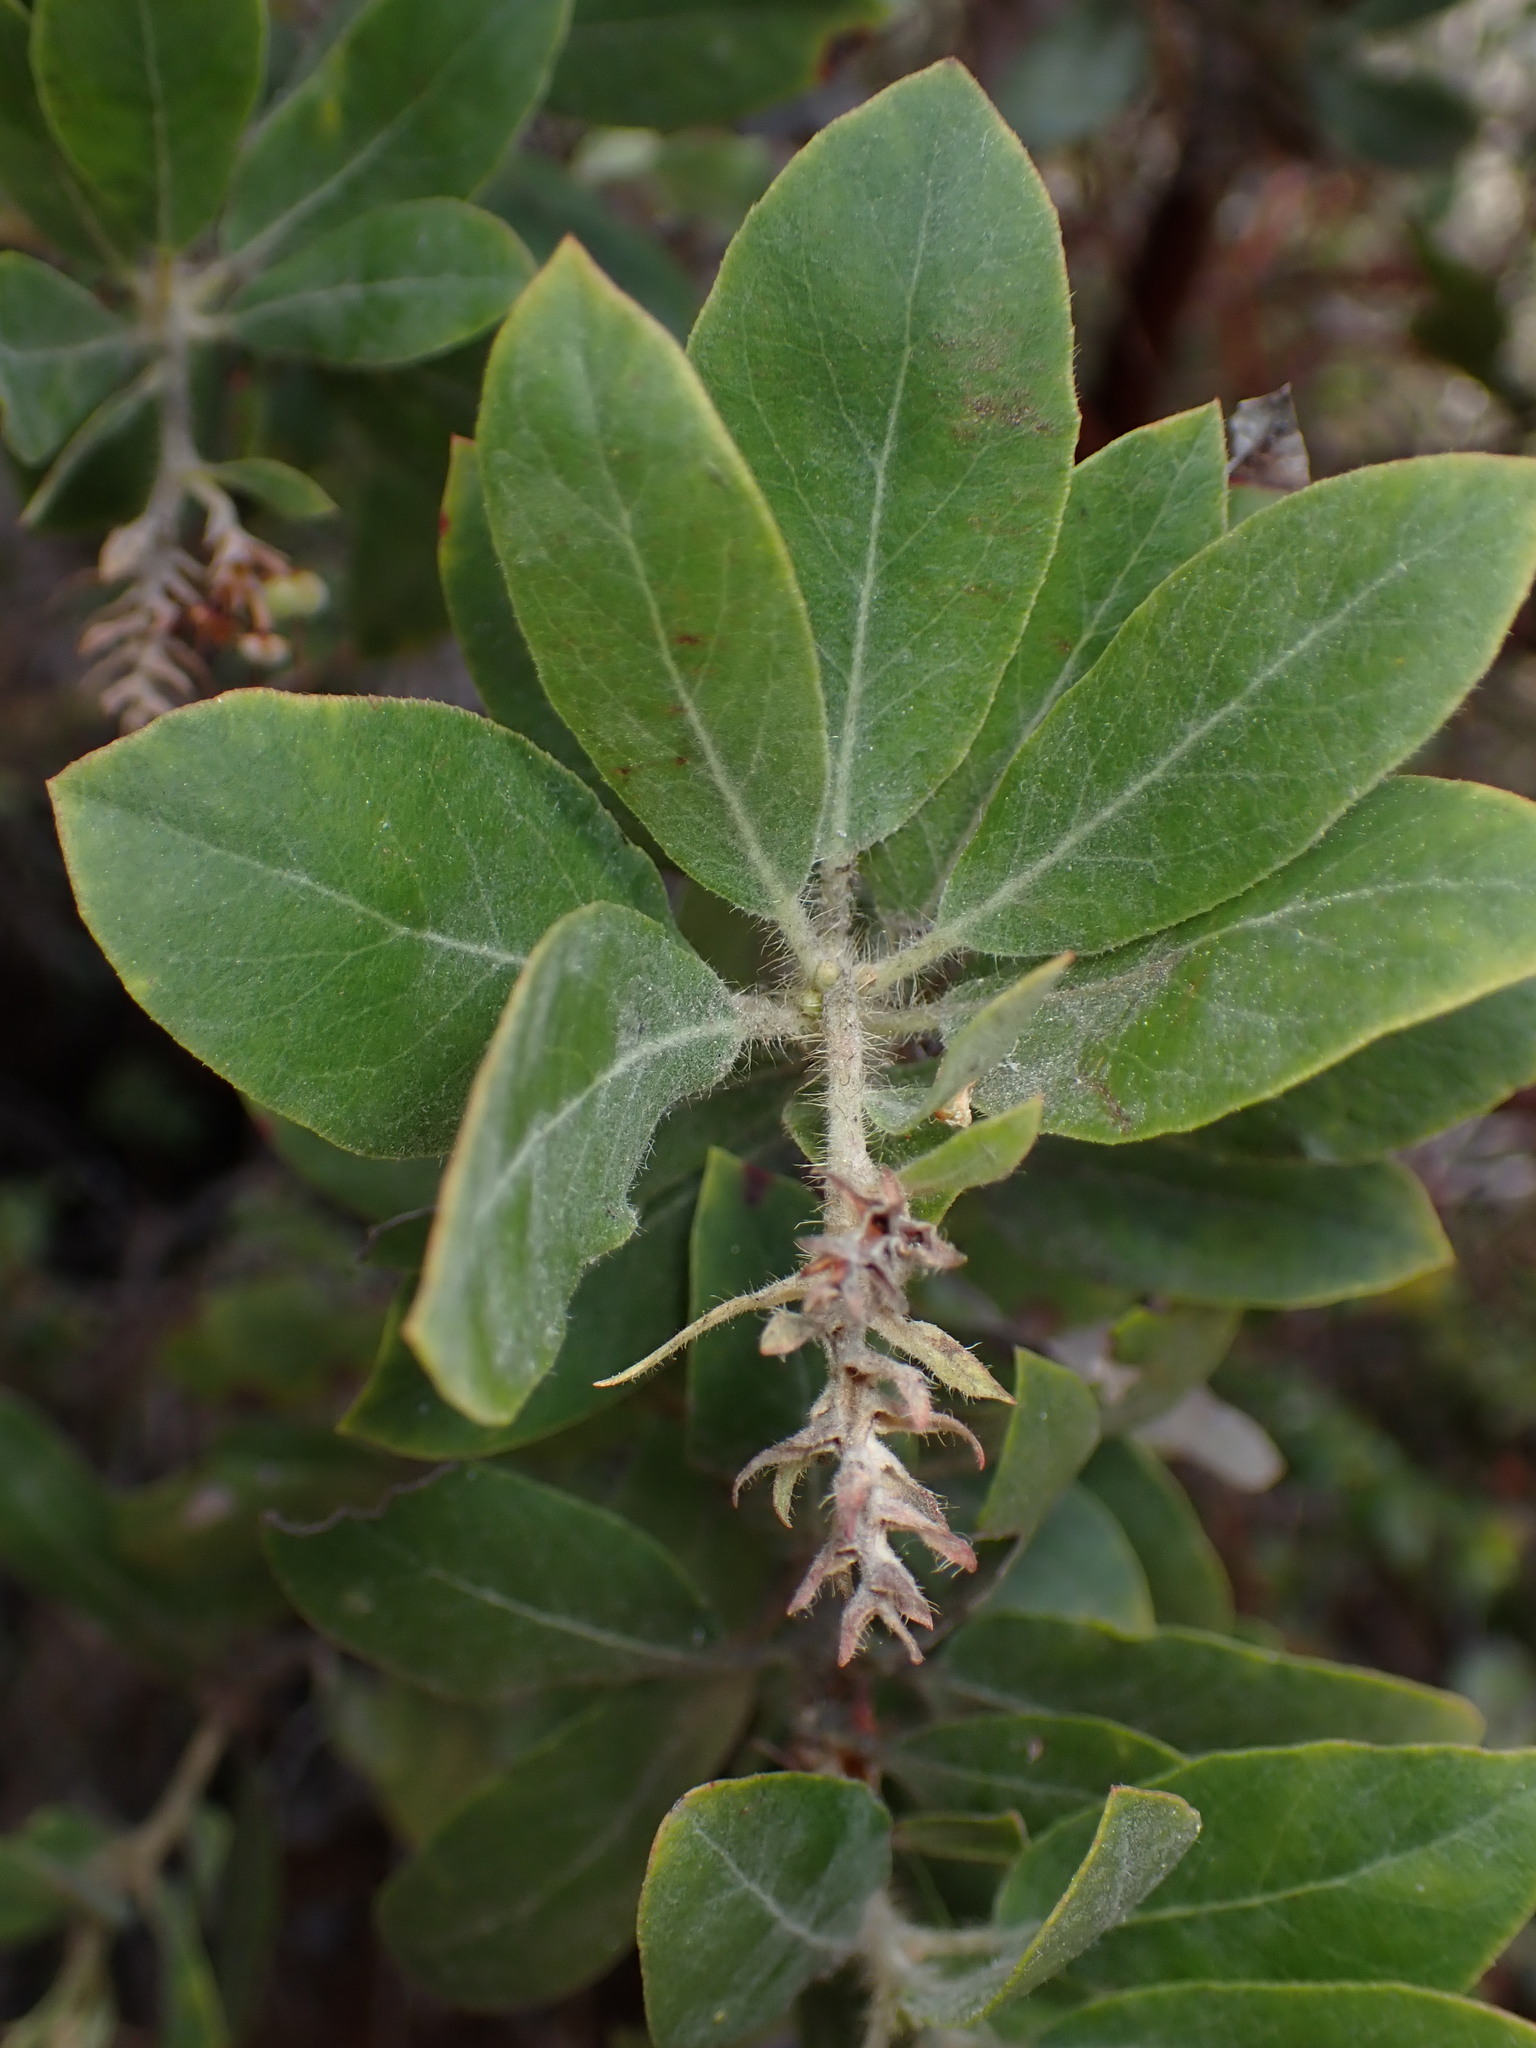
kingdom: Plantae
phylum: Tracheophyta
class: Magnoliopsida
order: Ericales
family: Ericaceae
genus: Arctostaphylos
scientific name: Arctostaphylos columbiana
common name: Bristly bearberry
